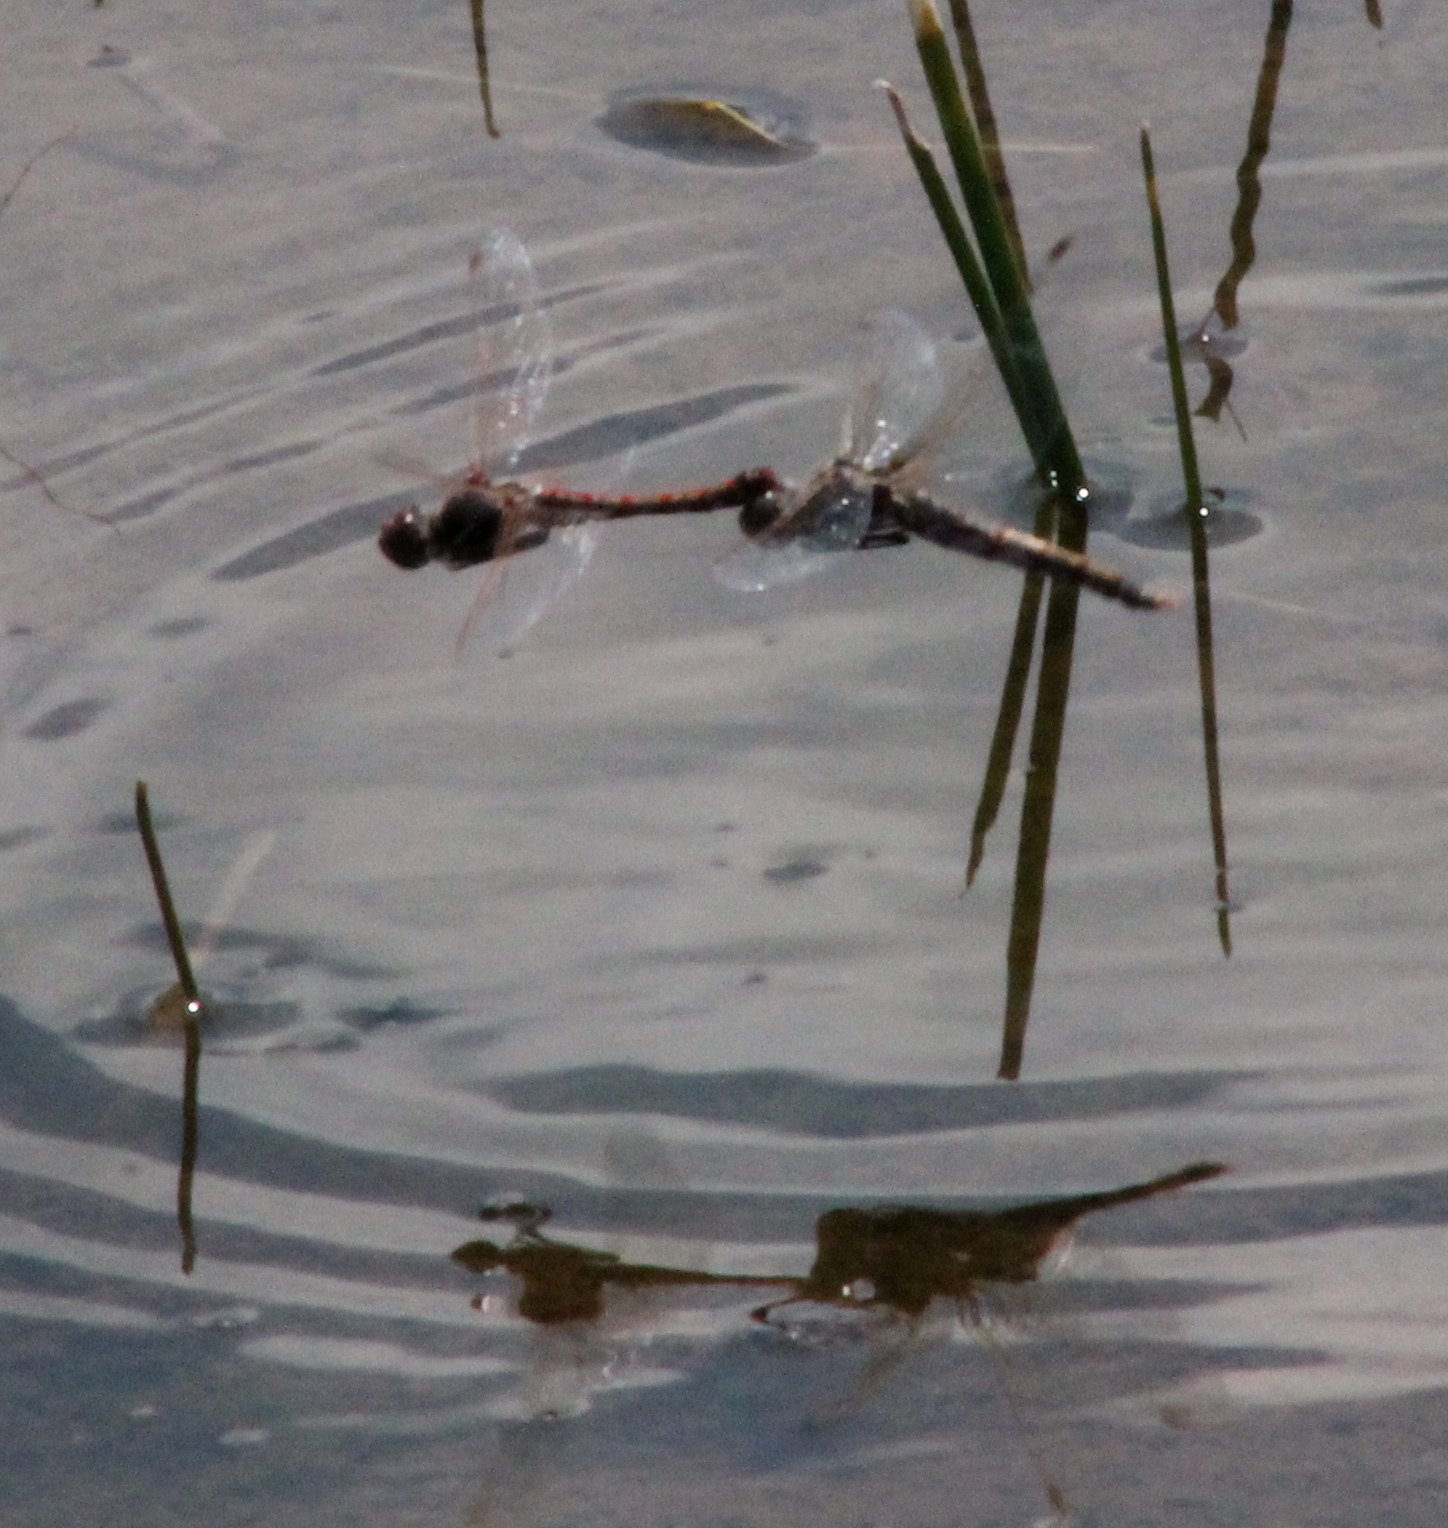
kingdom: Animalia
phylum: Arthropoda
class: Insecta
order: Odonata
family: Libellulidae
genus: Sympetrum
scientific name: Sympetrum corruptum
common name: Variegated meadowhawk
